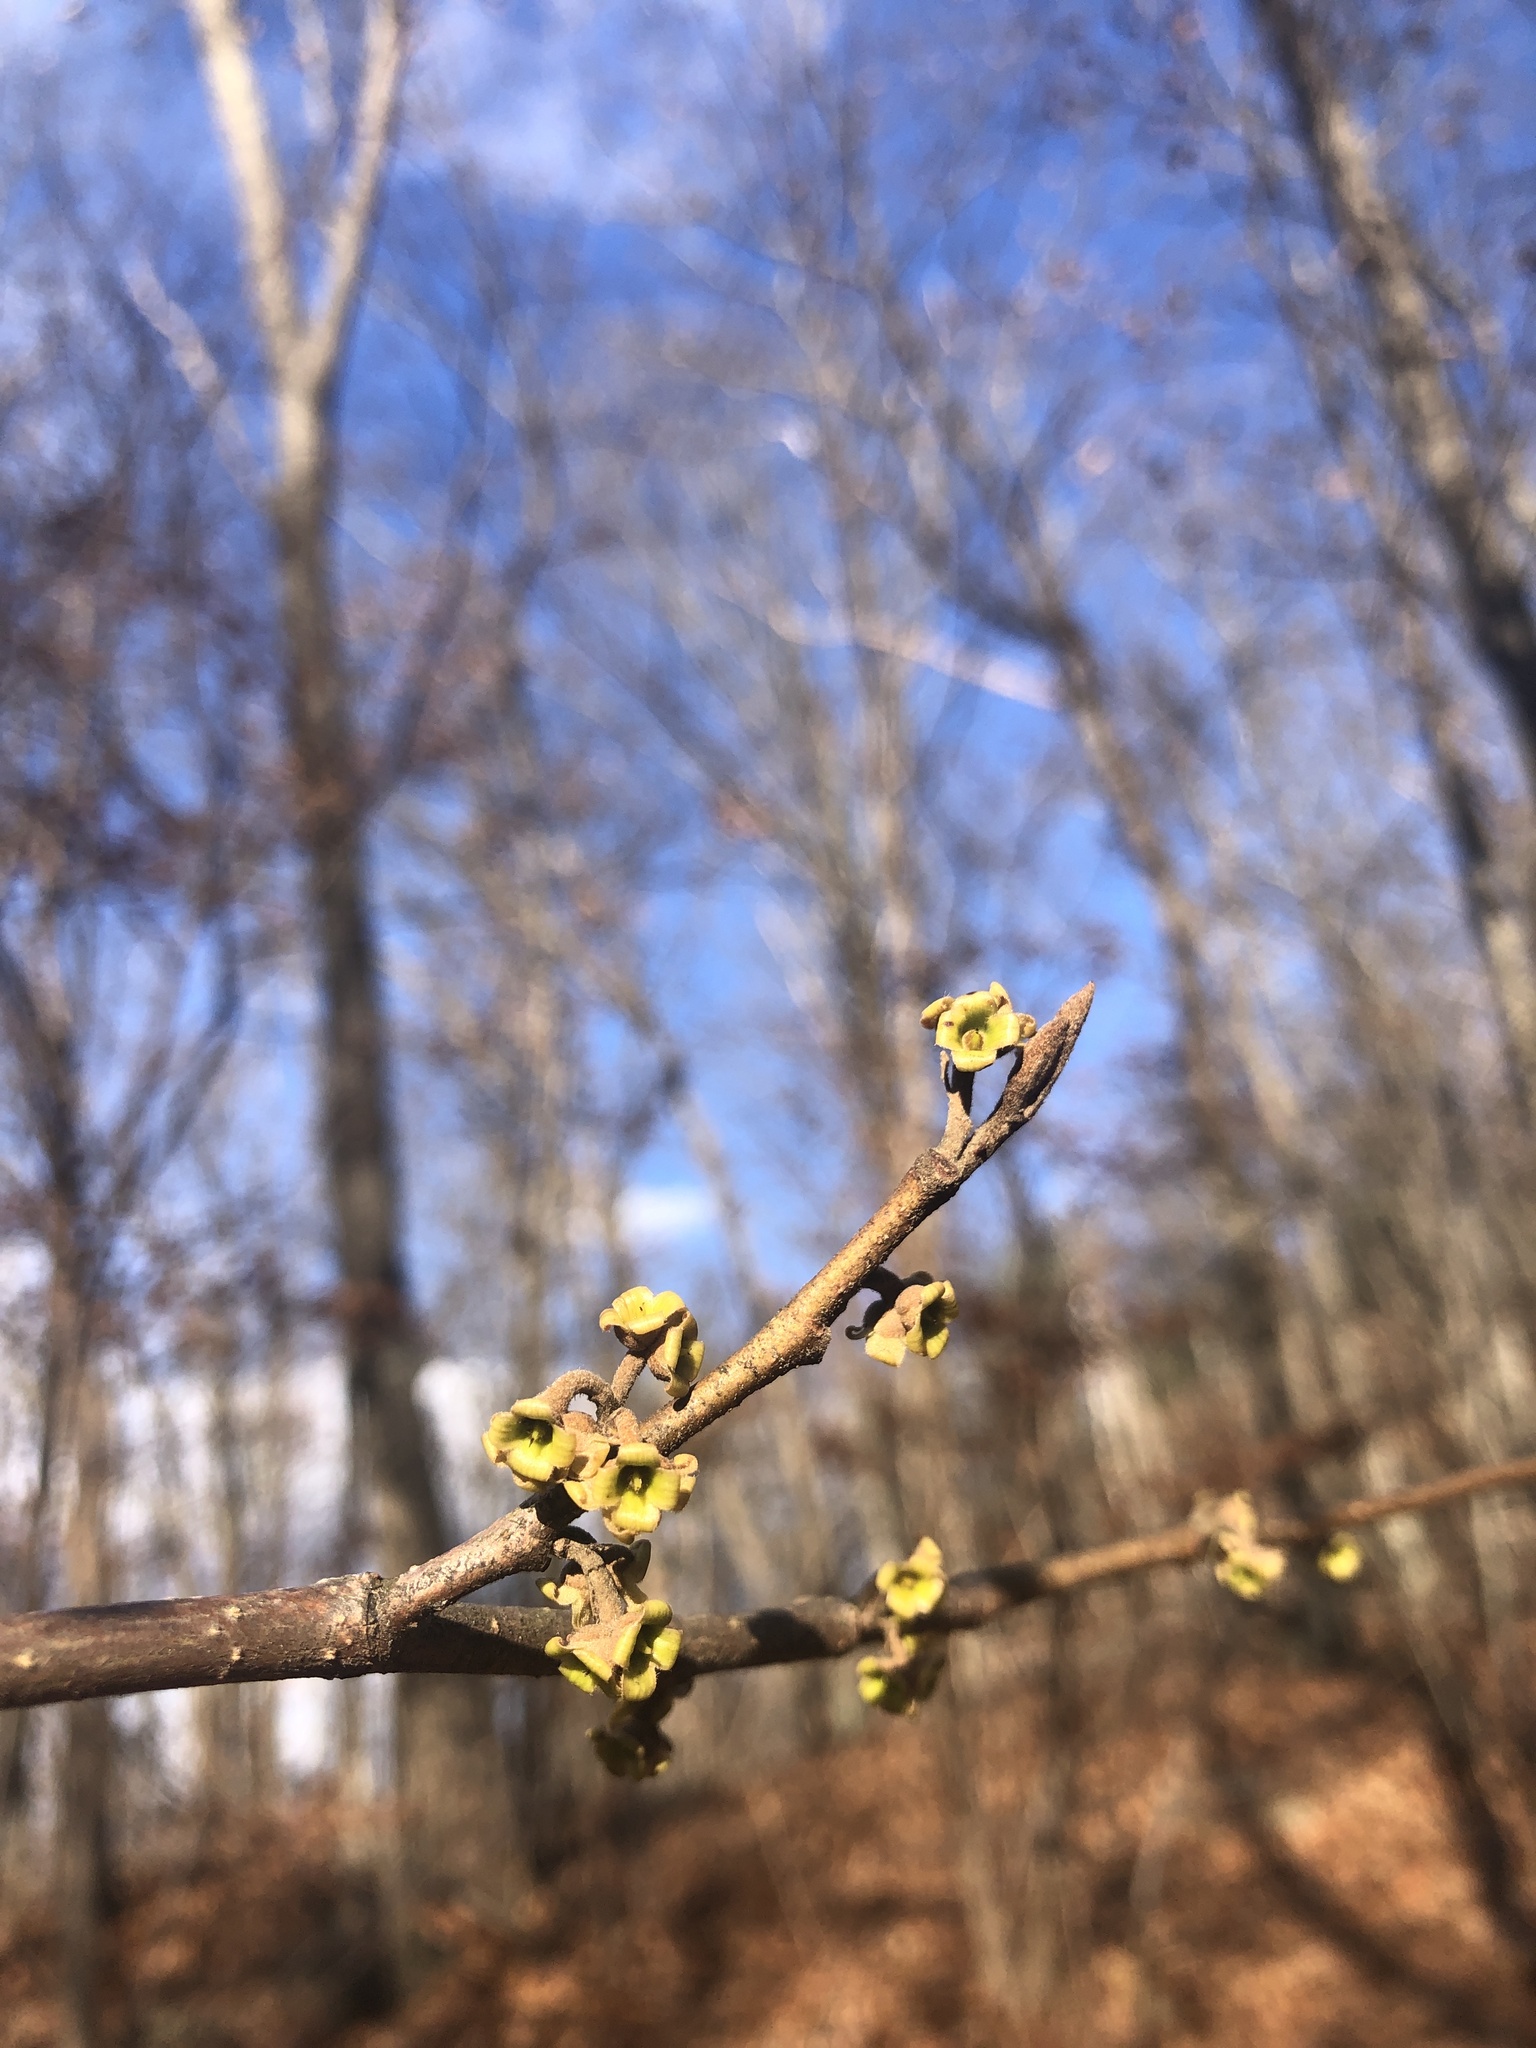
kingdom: Plantae
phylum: Tracheophyta
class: Magnoliopsida
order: Saxifragales
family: Hamamelidaceae
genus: Hamamelis
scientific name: Hamamelis virginiana
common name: Witch-hazel
